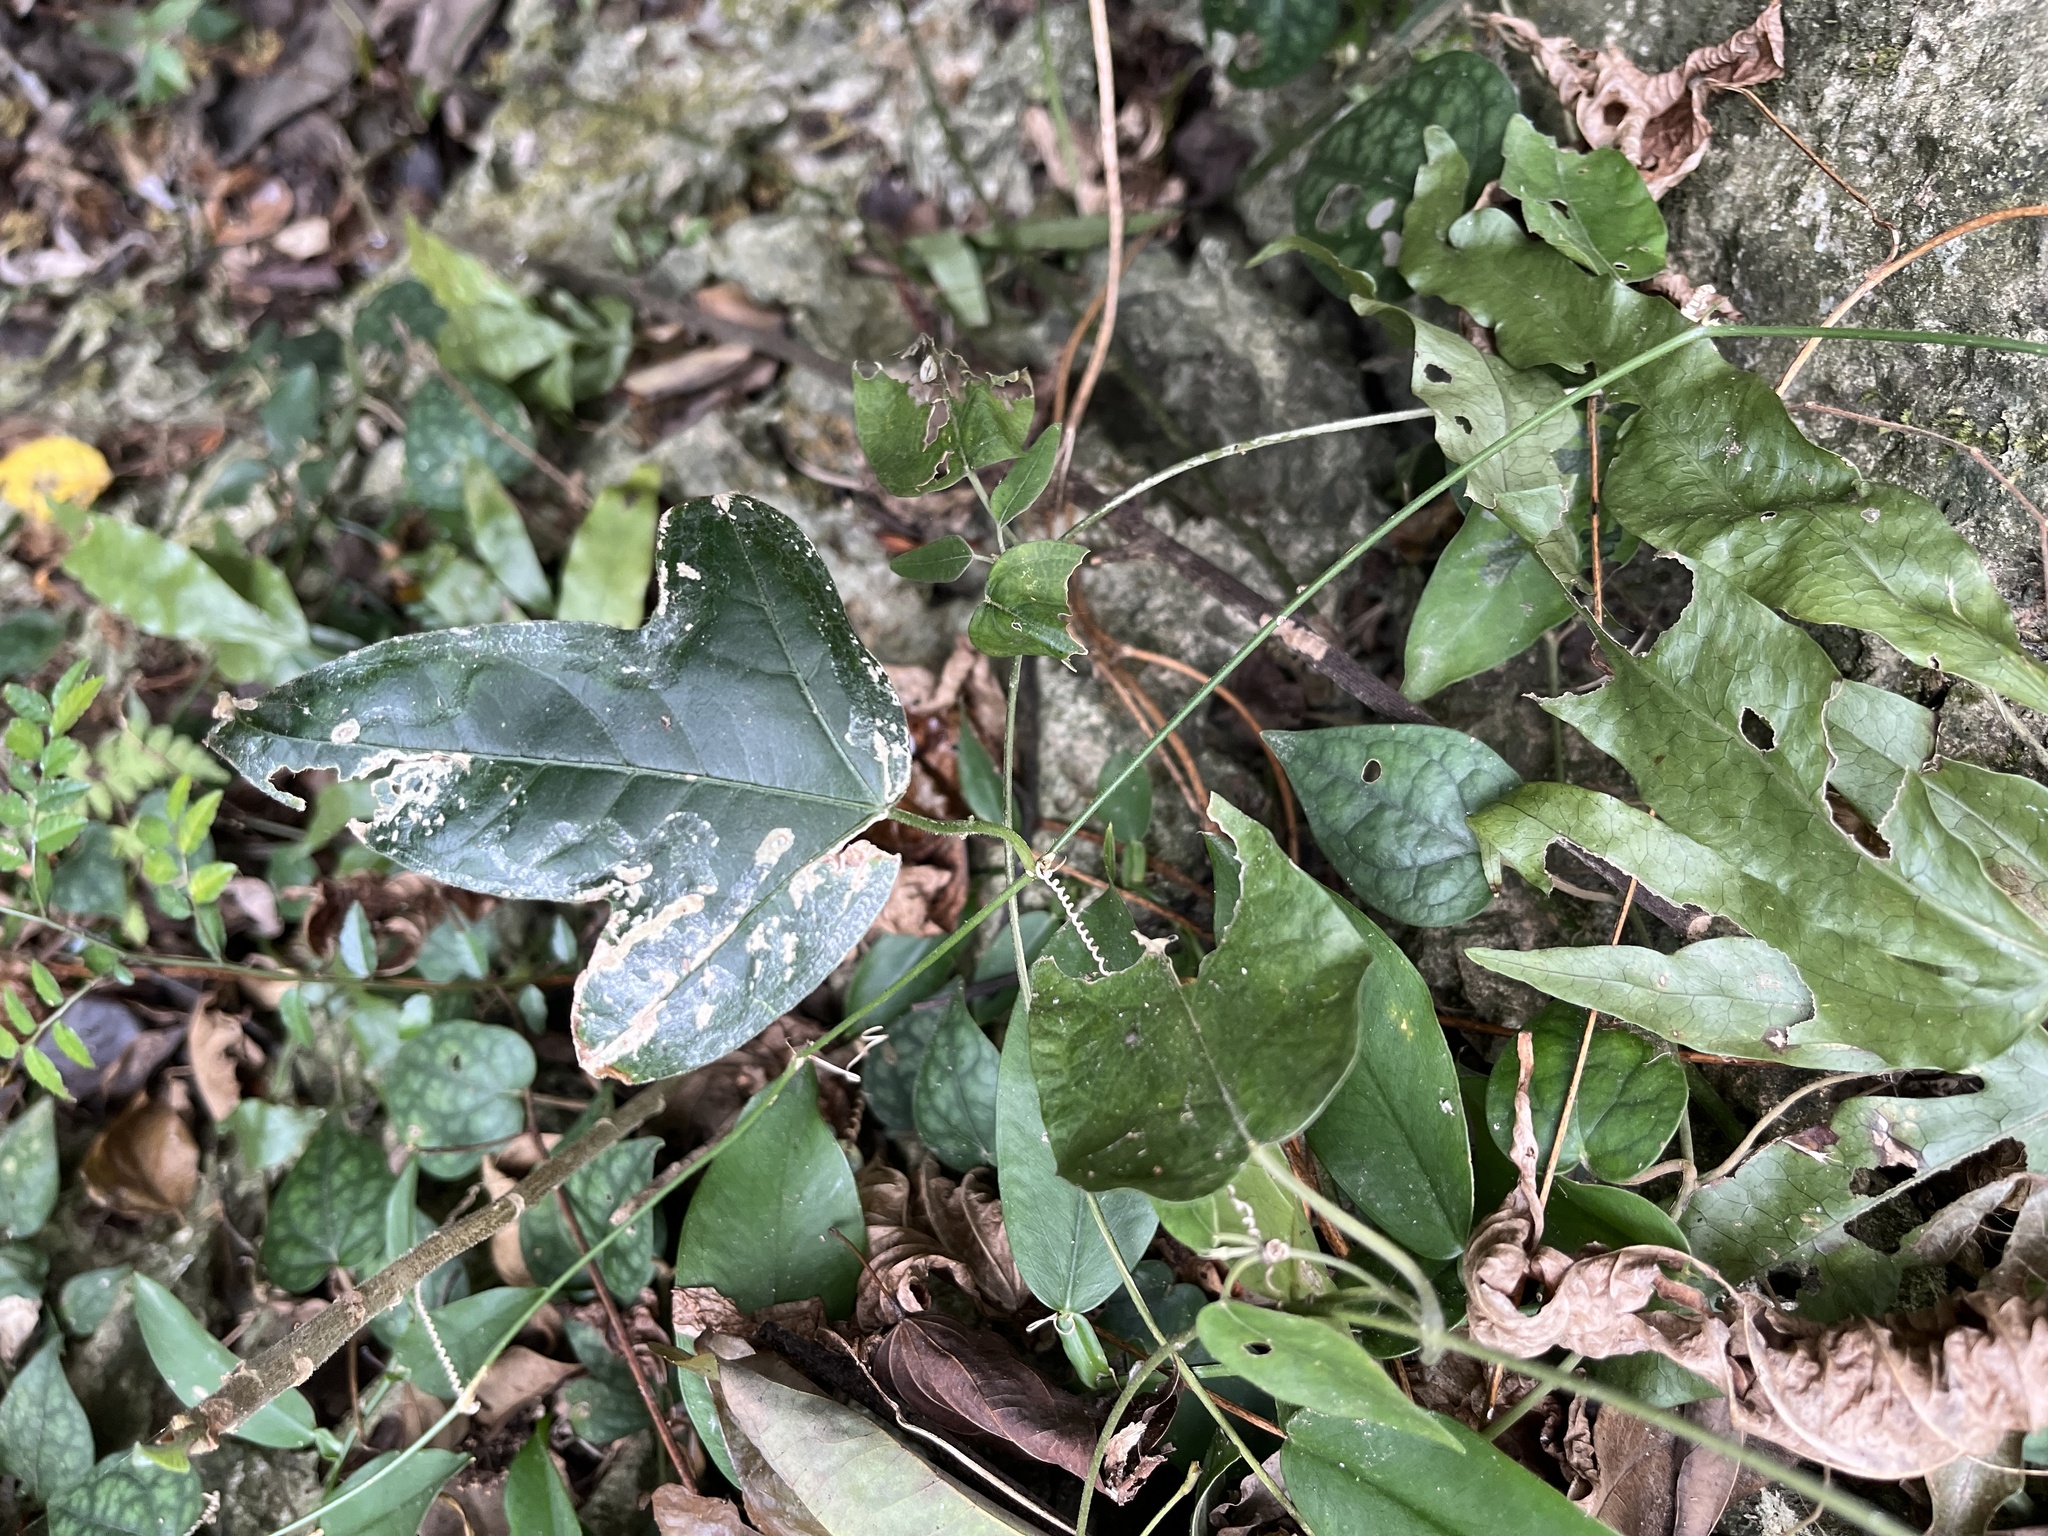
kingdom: Plantae
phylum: Tracheophyta
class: Magnoliopsida
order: Malpighiales
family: Passifloraceae
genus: Passiflora
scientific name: Passiflora suberosa
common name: Wild passionfruit
